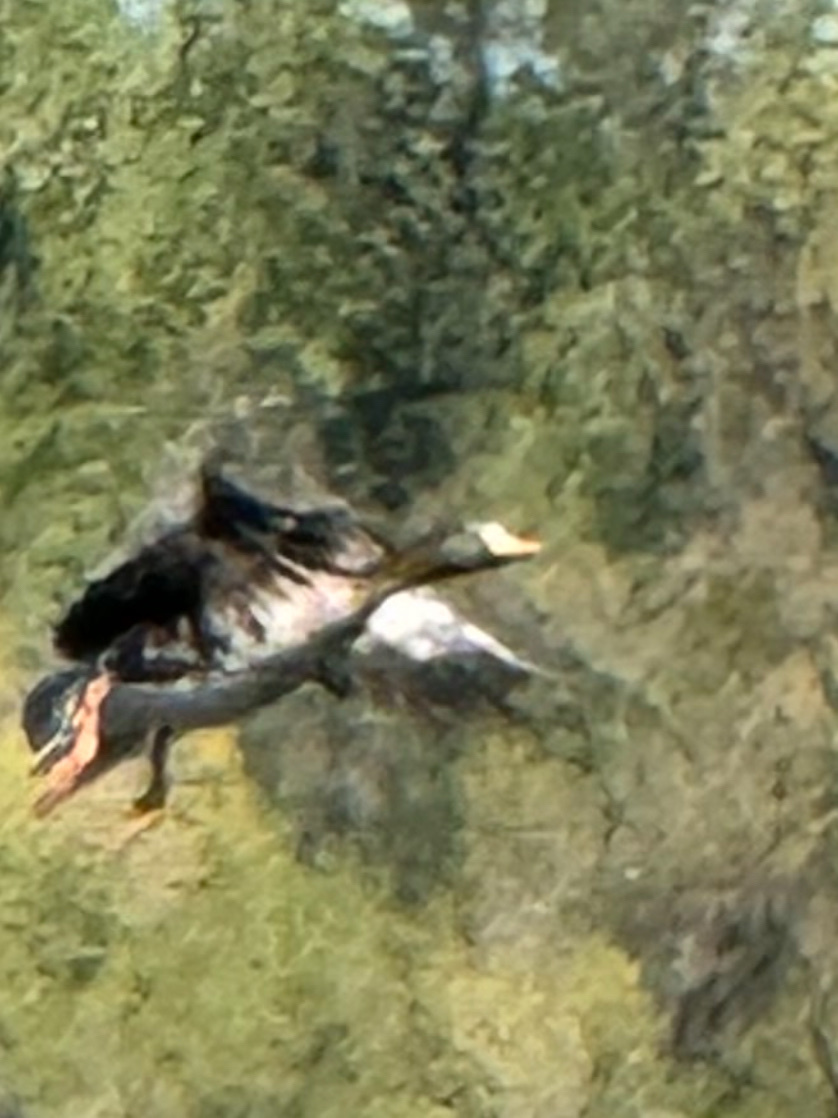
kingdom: Animalia
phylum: Chordata
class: Aves
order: Anseriformes
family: Anatidae
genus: Anser
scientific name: Anser albifrons
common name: Greater white-fronted goose
